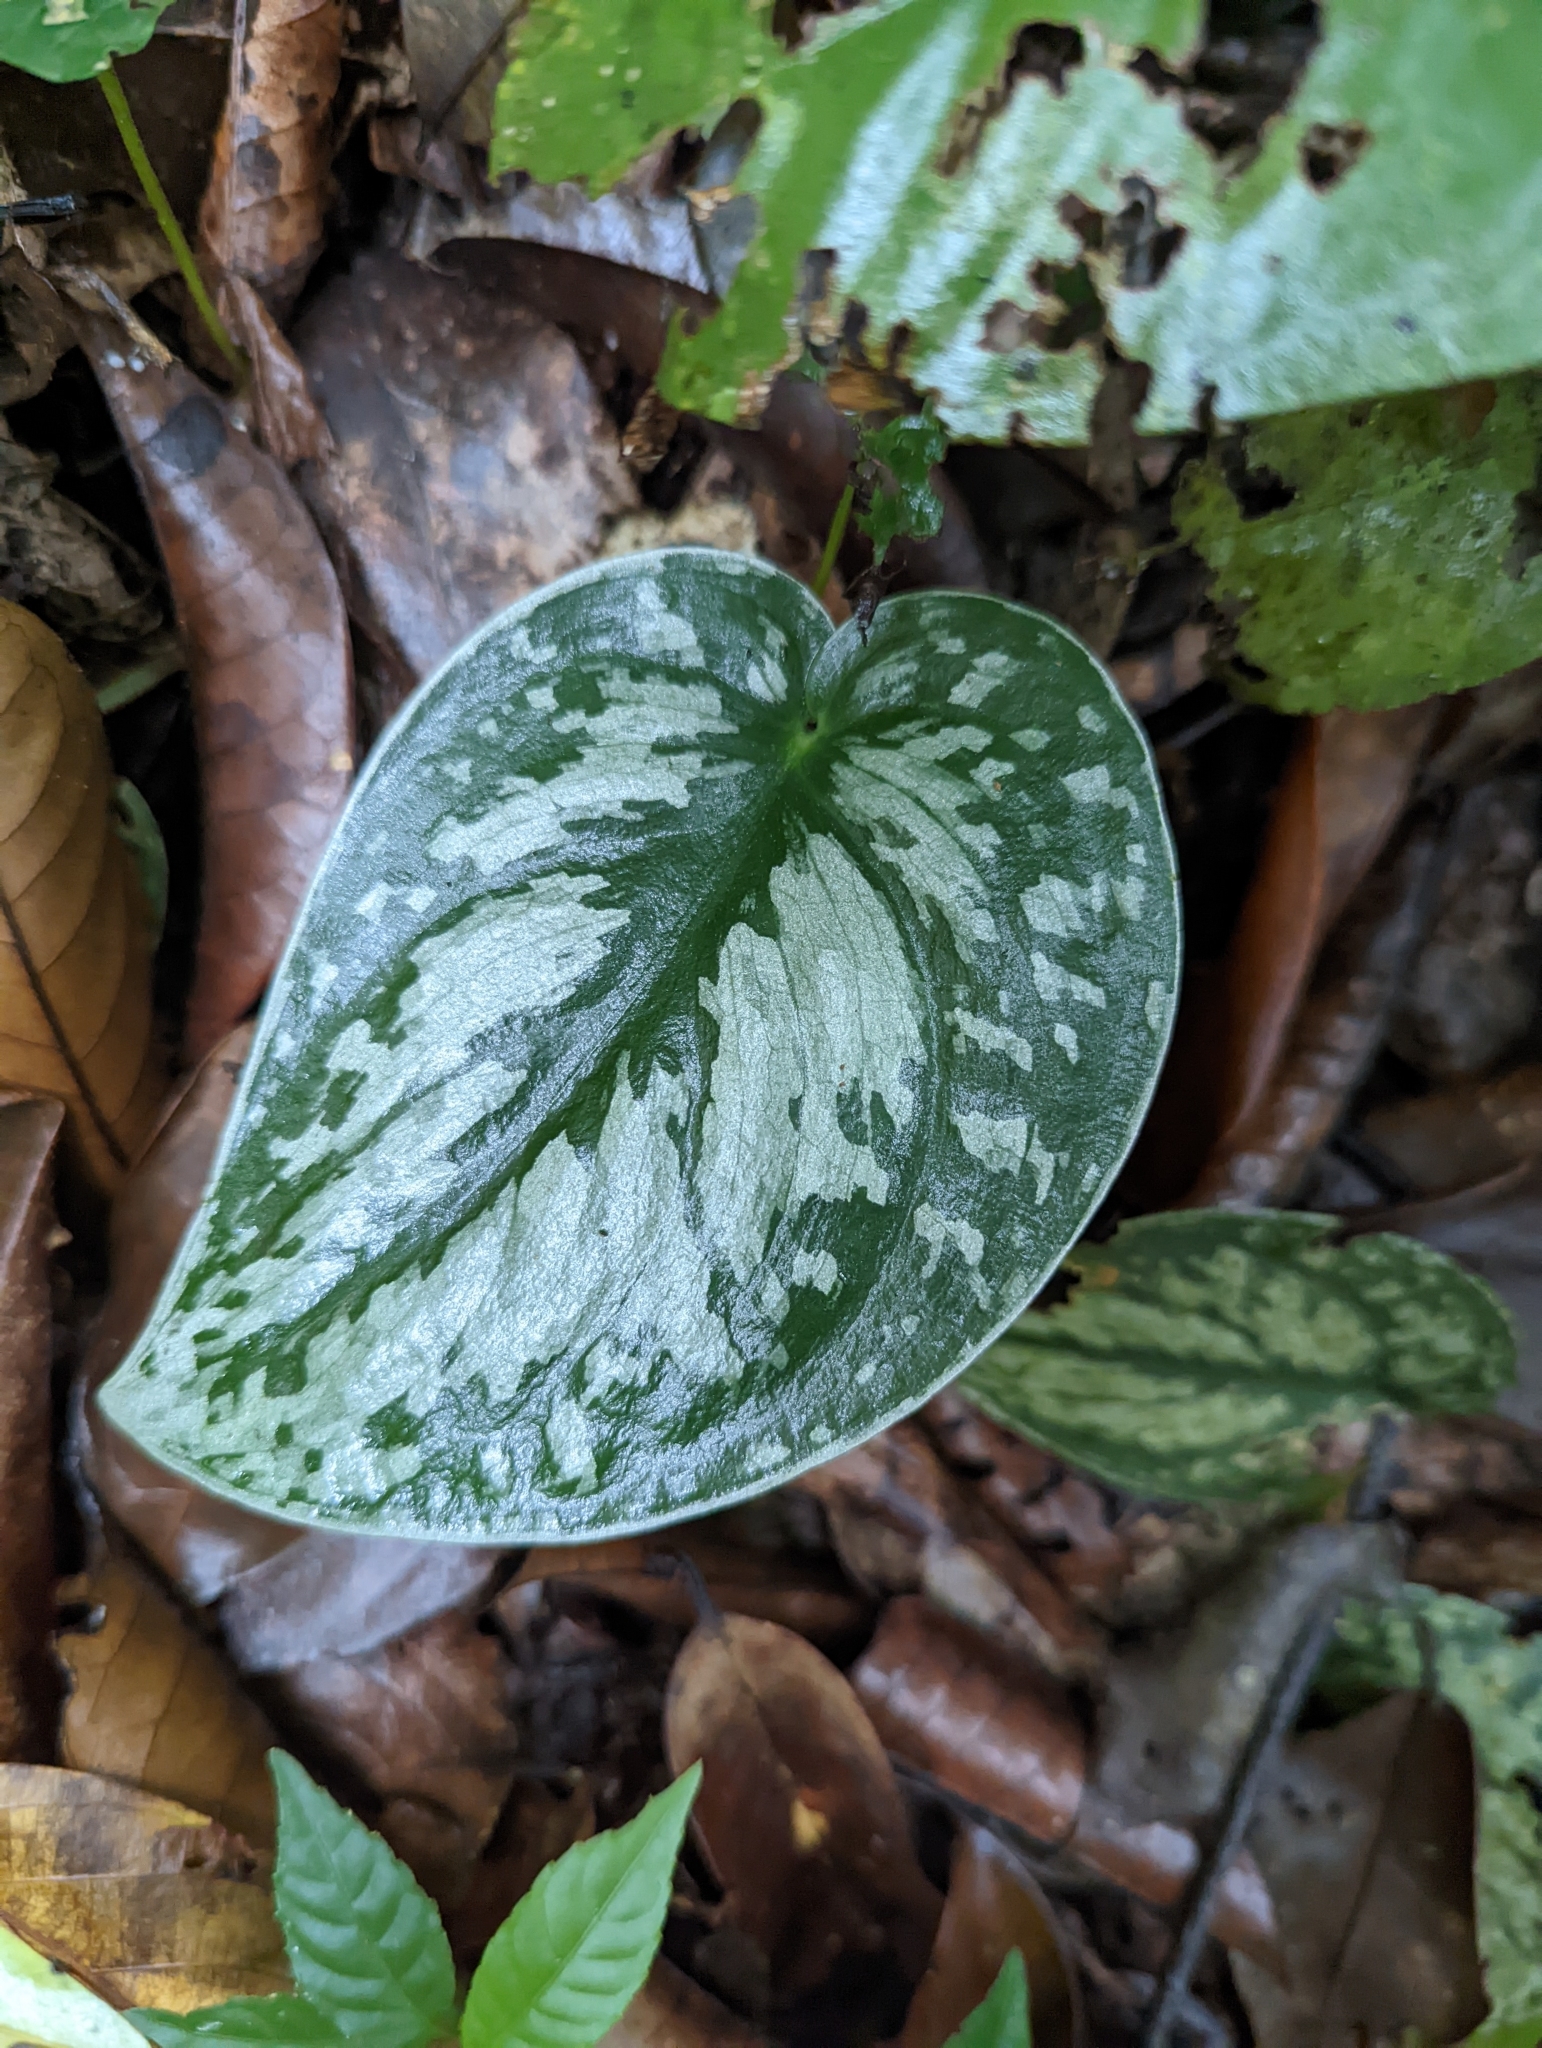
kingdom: Plantae
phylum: Tracheophyta
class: Liliopsida
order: Alismatales
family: Araceae
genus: Scindapsus
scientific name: Scindapsus pictus
